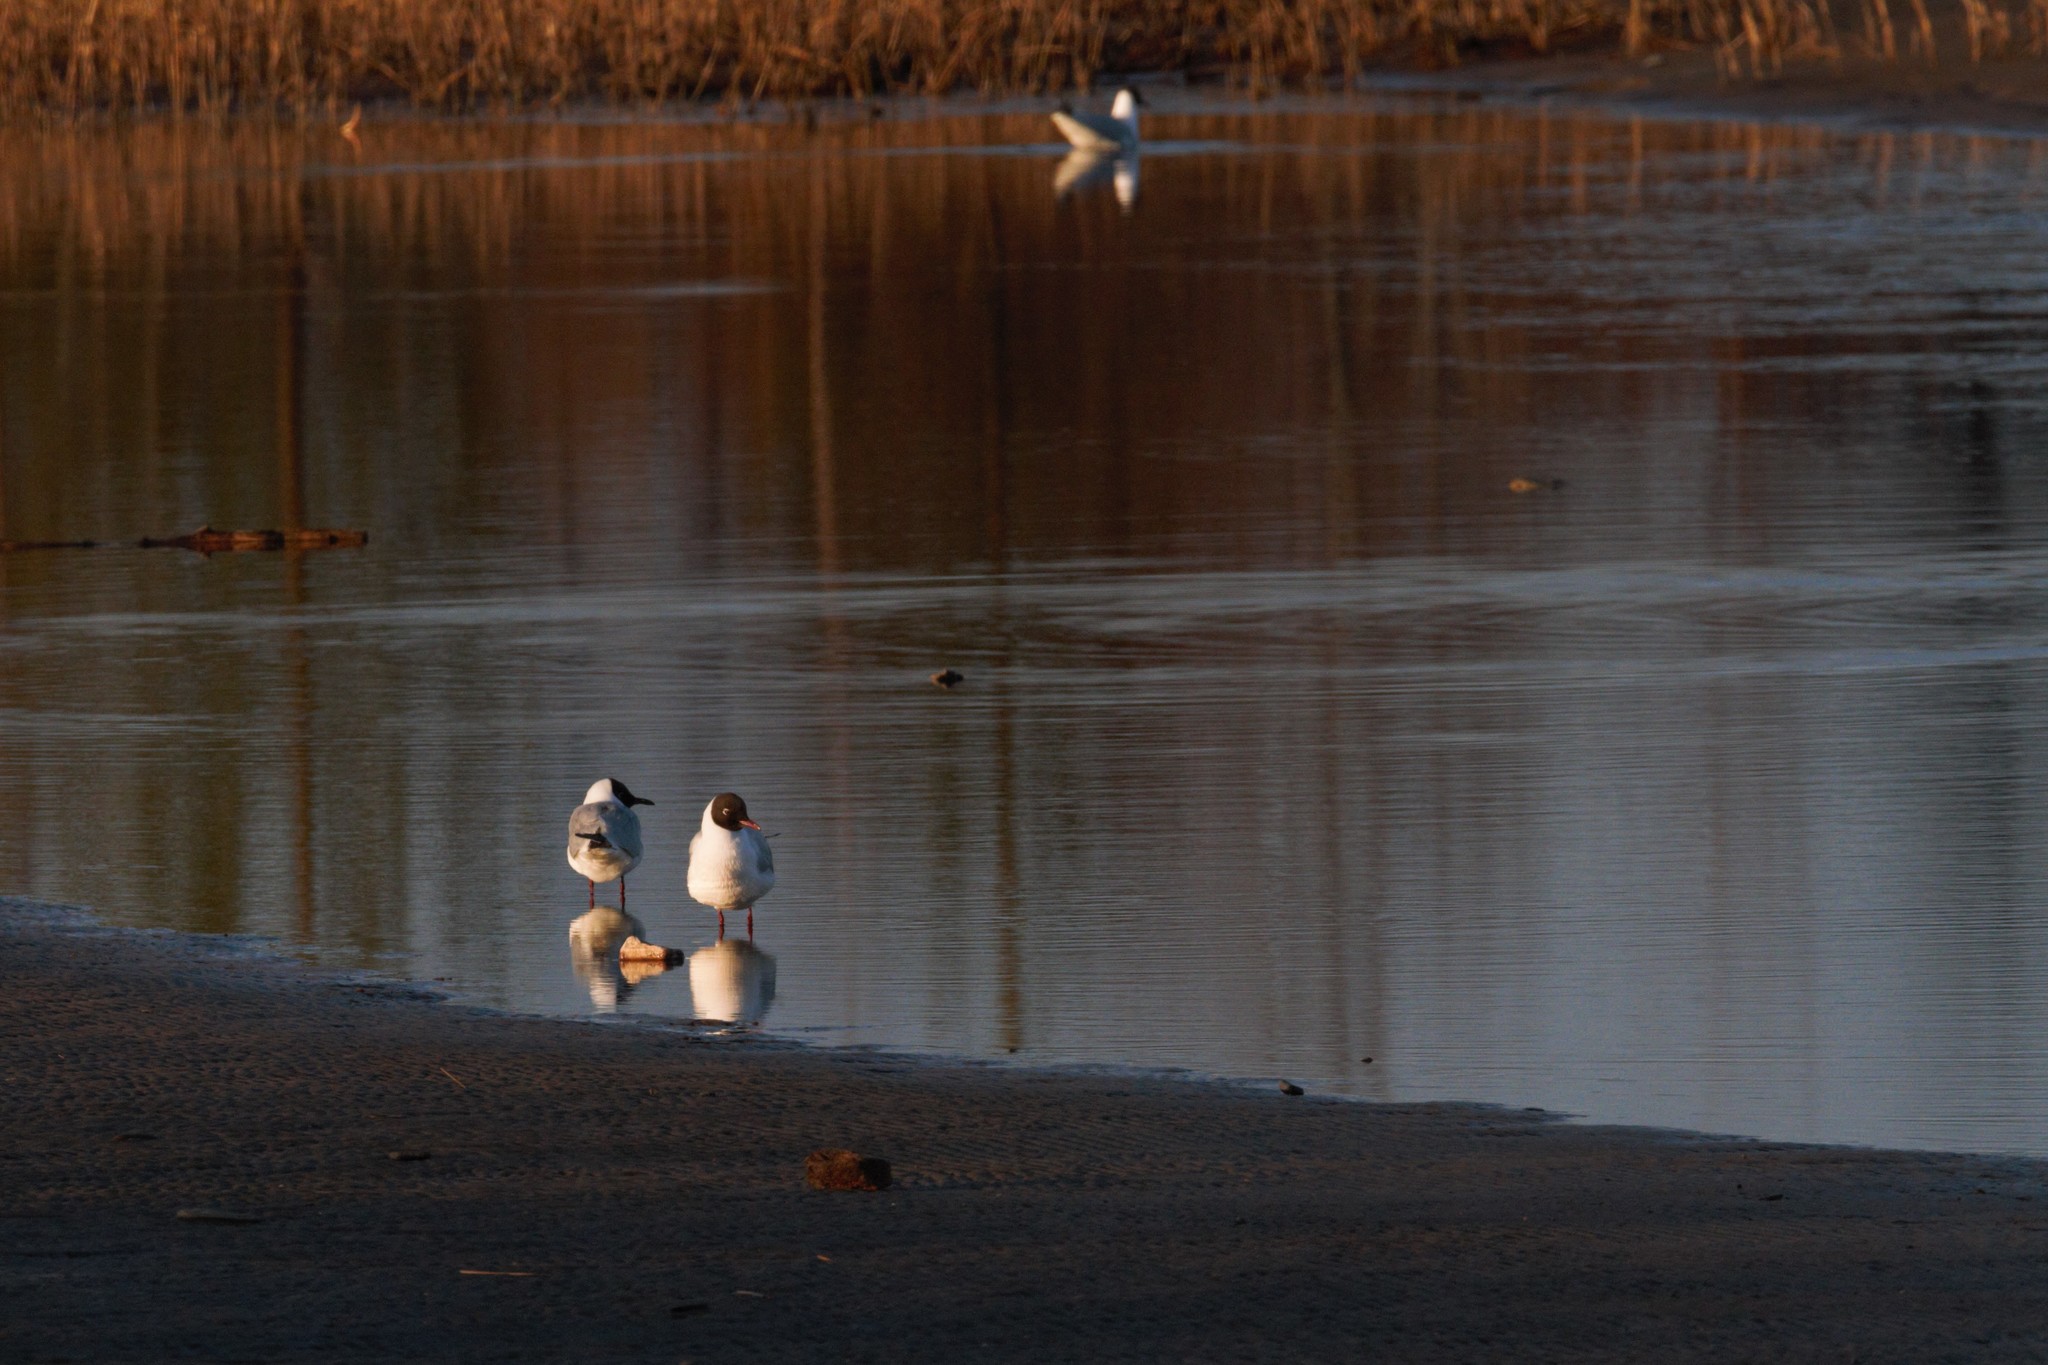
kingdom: Animalia
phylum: Chordata
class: Aves
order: Charadriiformes
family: Laridae
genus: Chroicocephalus
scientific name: Chroicocephalus ridibundus
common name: Black-headed gull
